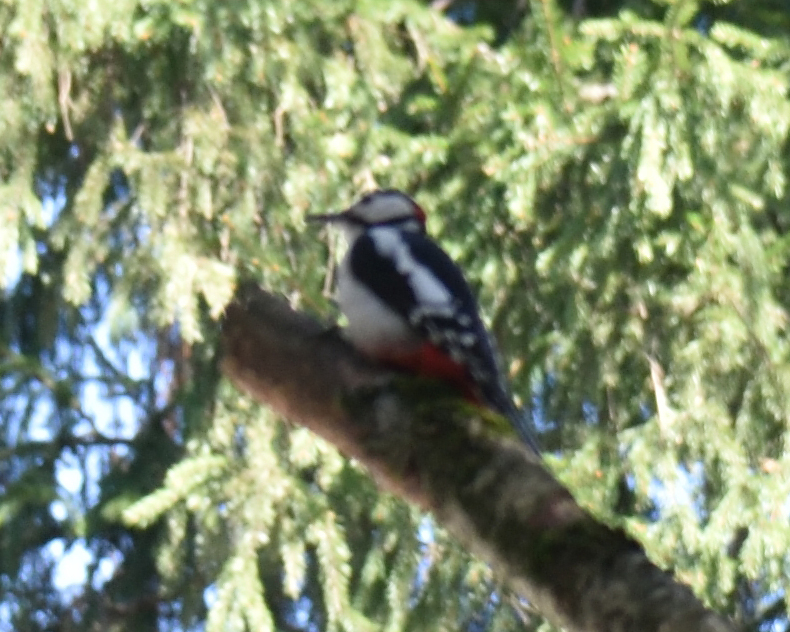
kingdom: Animalia
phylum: Chordata
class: Aves
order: Piciformes
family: Picidae
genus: Dendrocopos
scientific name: Dendrocopos major
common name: Great spotted woodpecker
